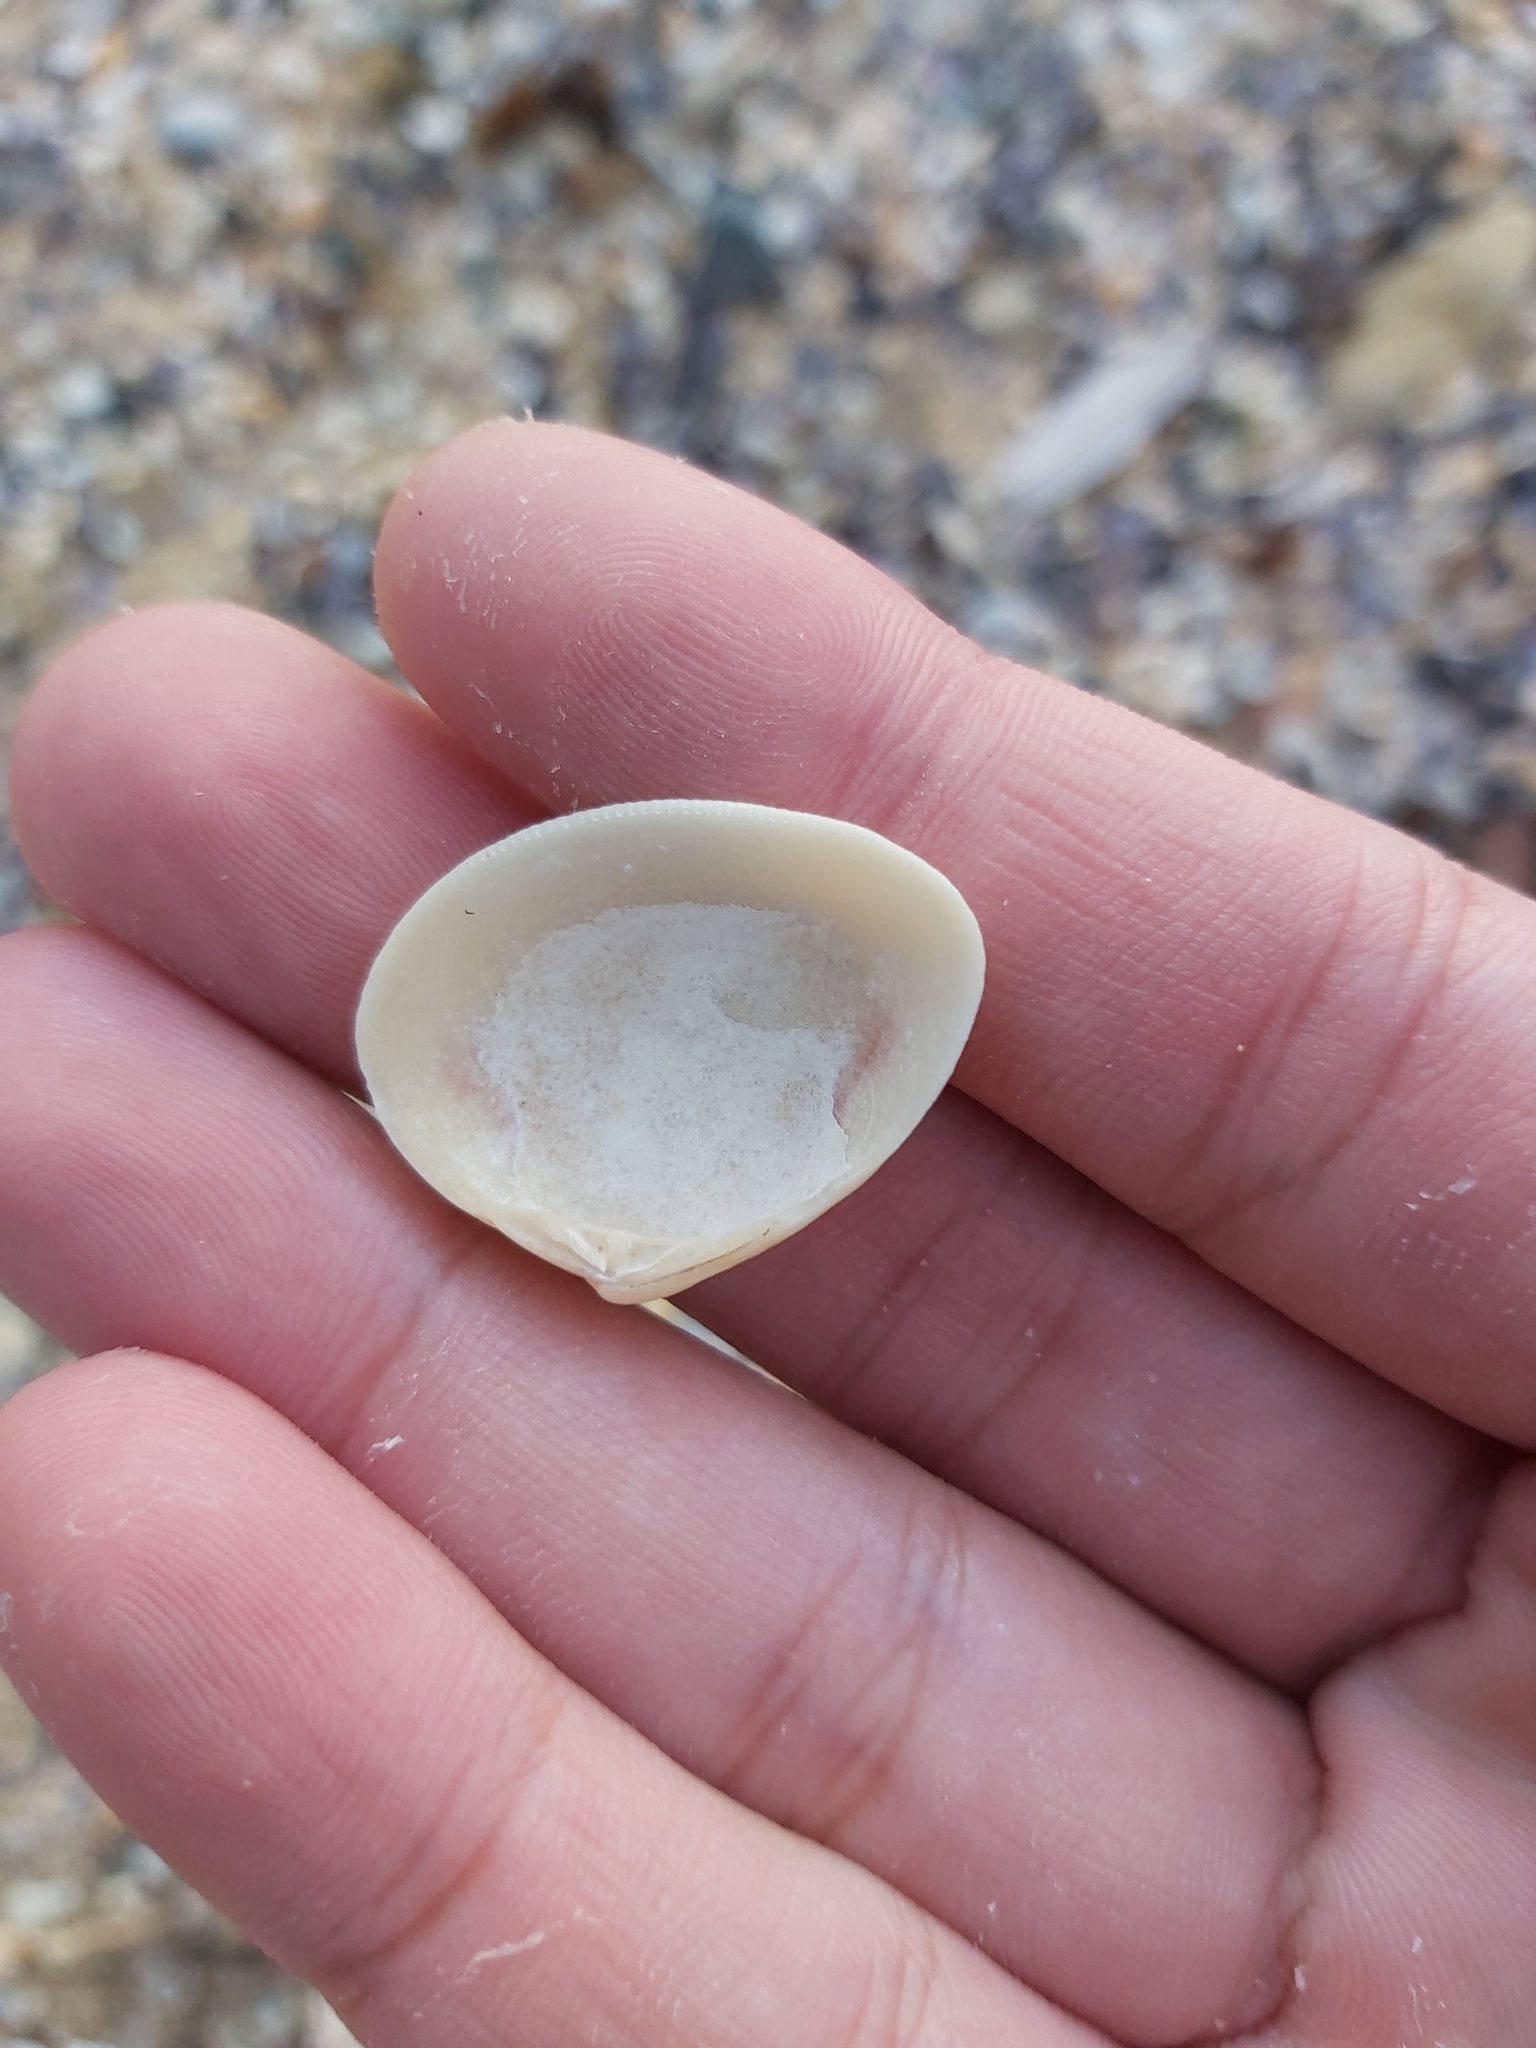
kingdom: Animalia
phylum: Mollusca
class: Bivalvia
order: Venerida
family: Veneridae
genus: Tawera
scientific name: Tawera lagopus
